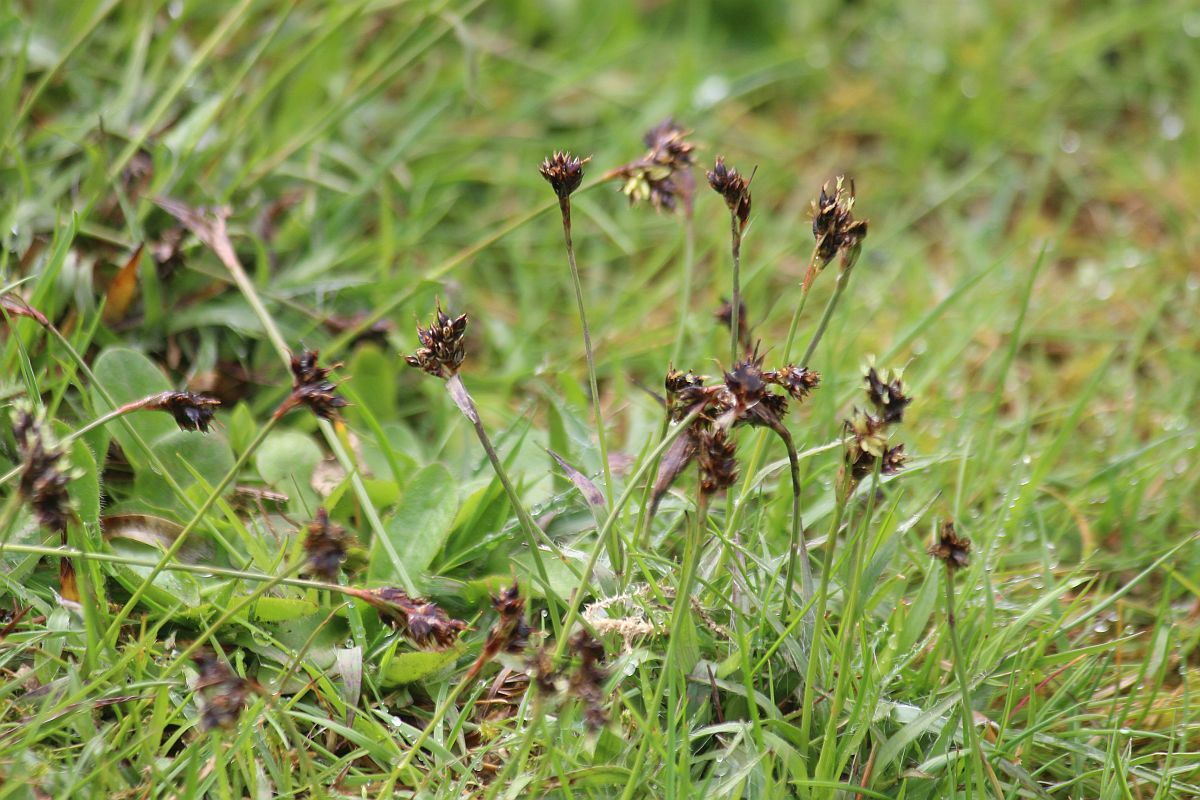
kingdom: Plantae
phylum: Tracheophyta
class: Liliopsida
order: Poales
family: Juncaceae
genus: Luzula
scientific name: Luzula campestris
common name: Field wood-rush
